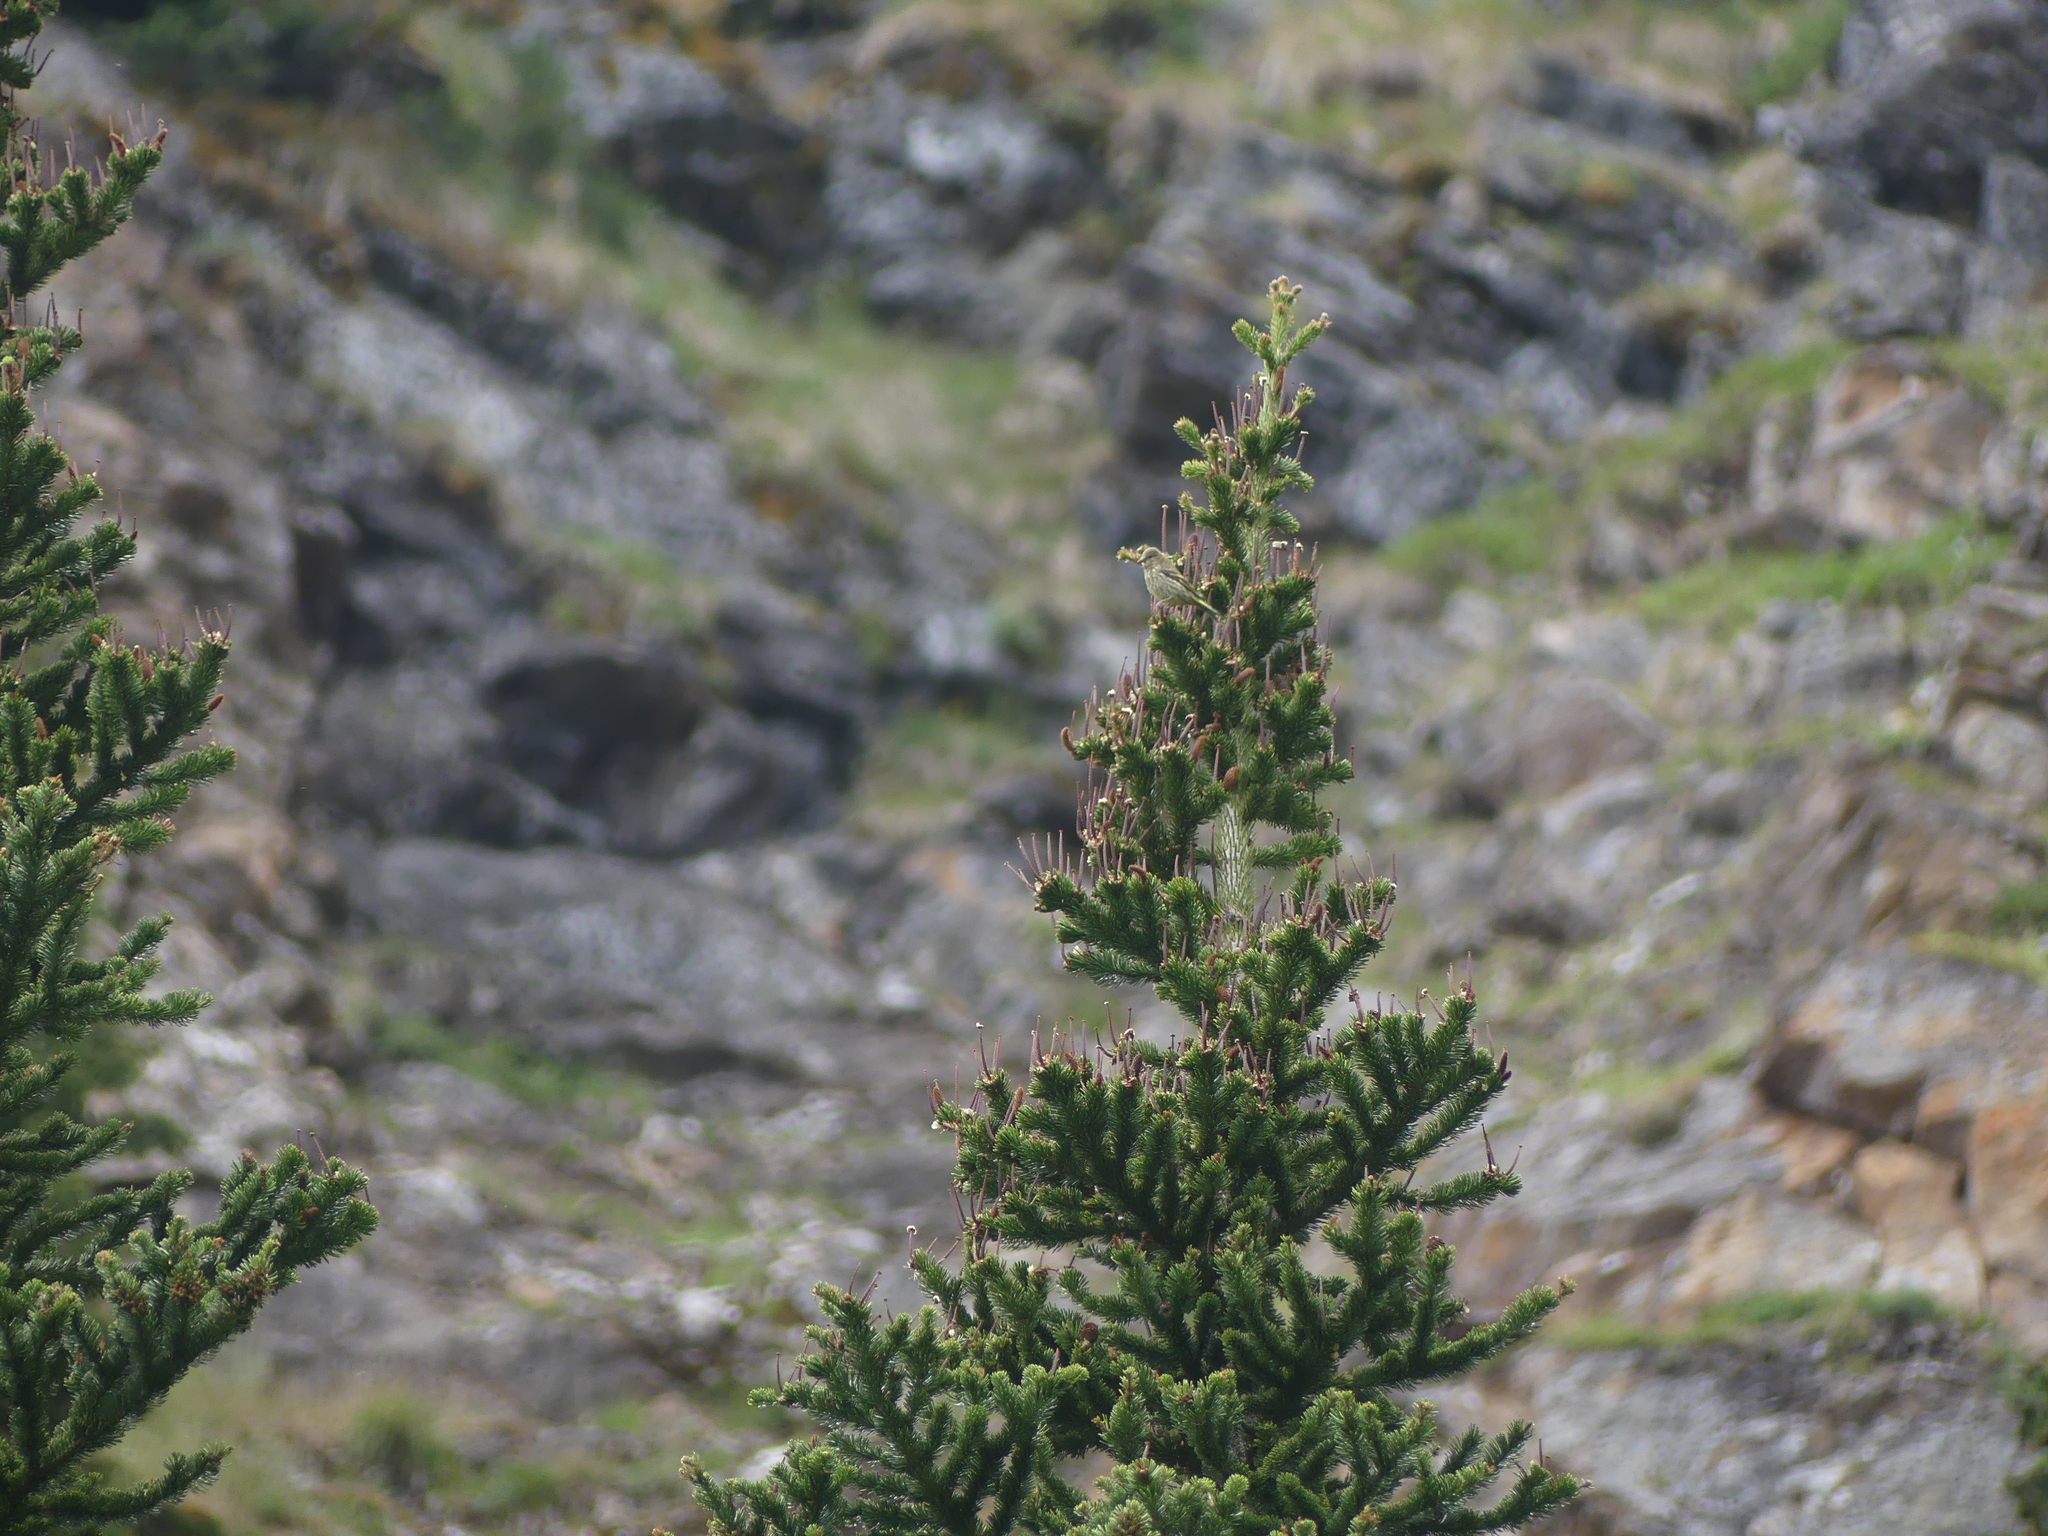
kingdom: Animalia
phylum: Chordata
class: Aves
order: Passeriformes
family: Fringillidae
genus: Spinus
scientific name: Spinus pinus
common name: Pine siskin
